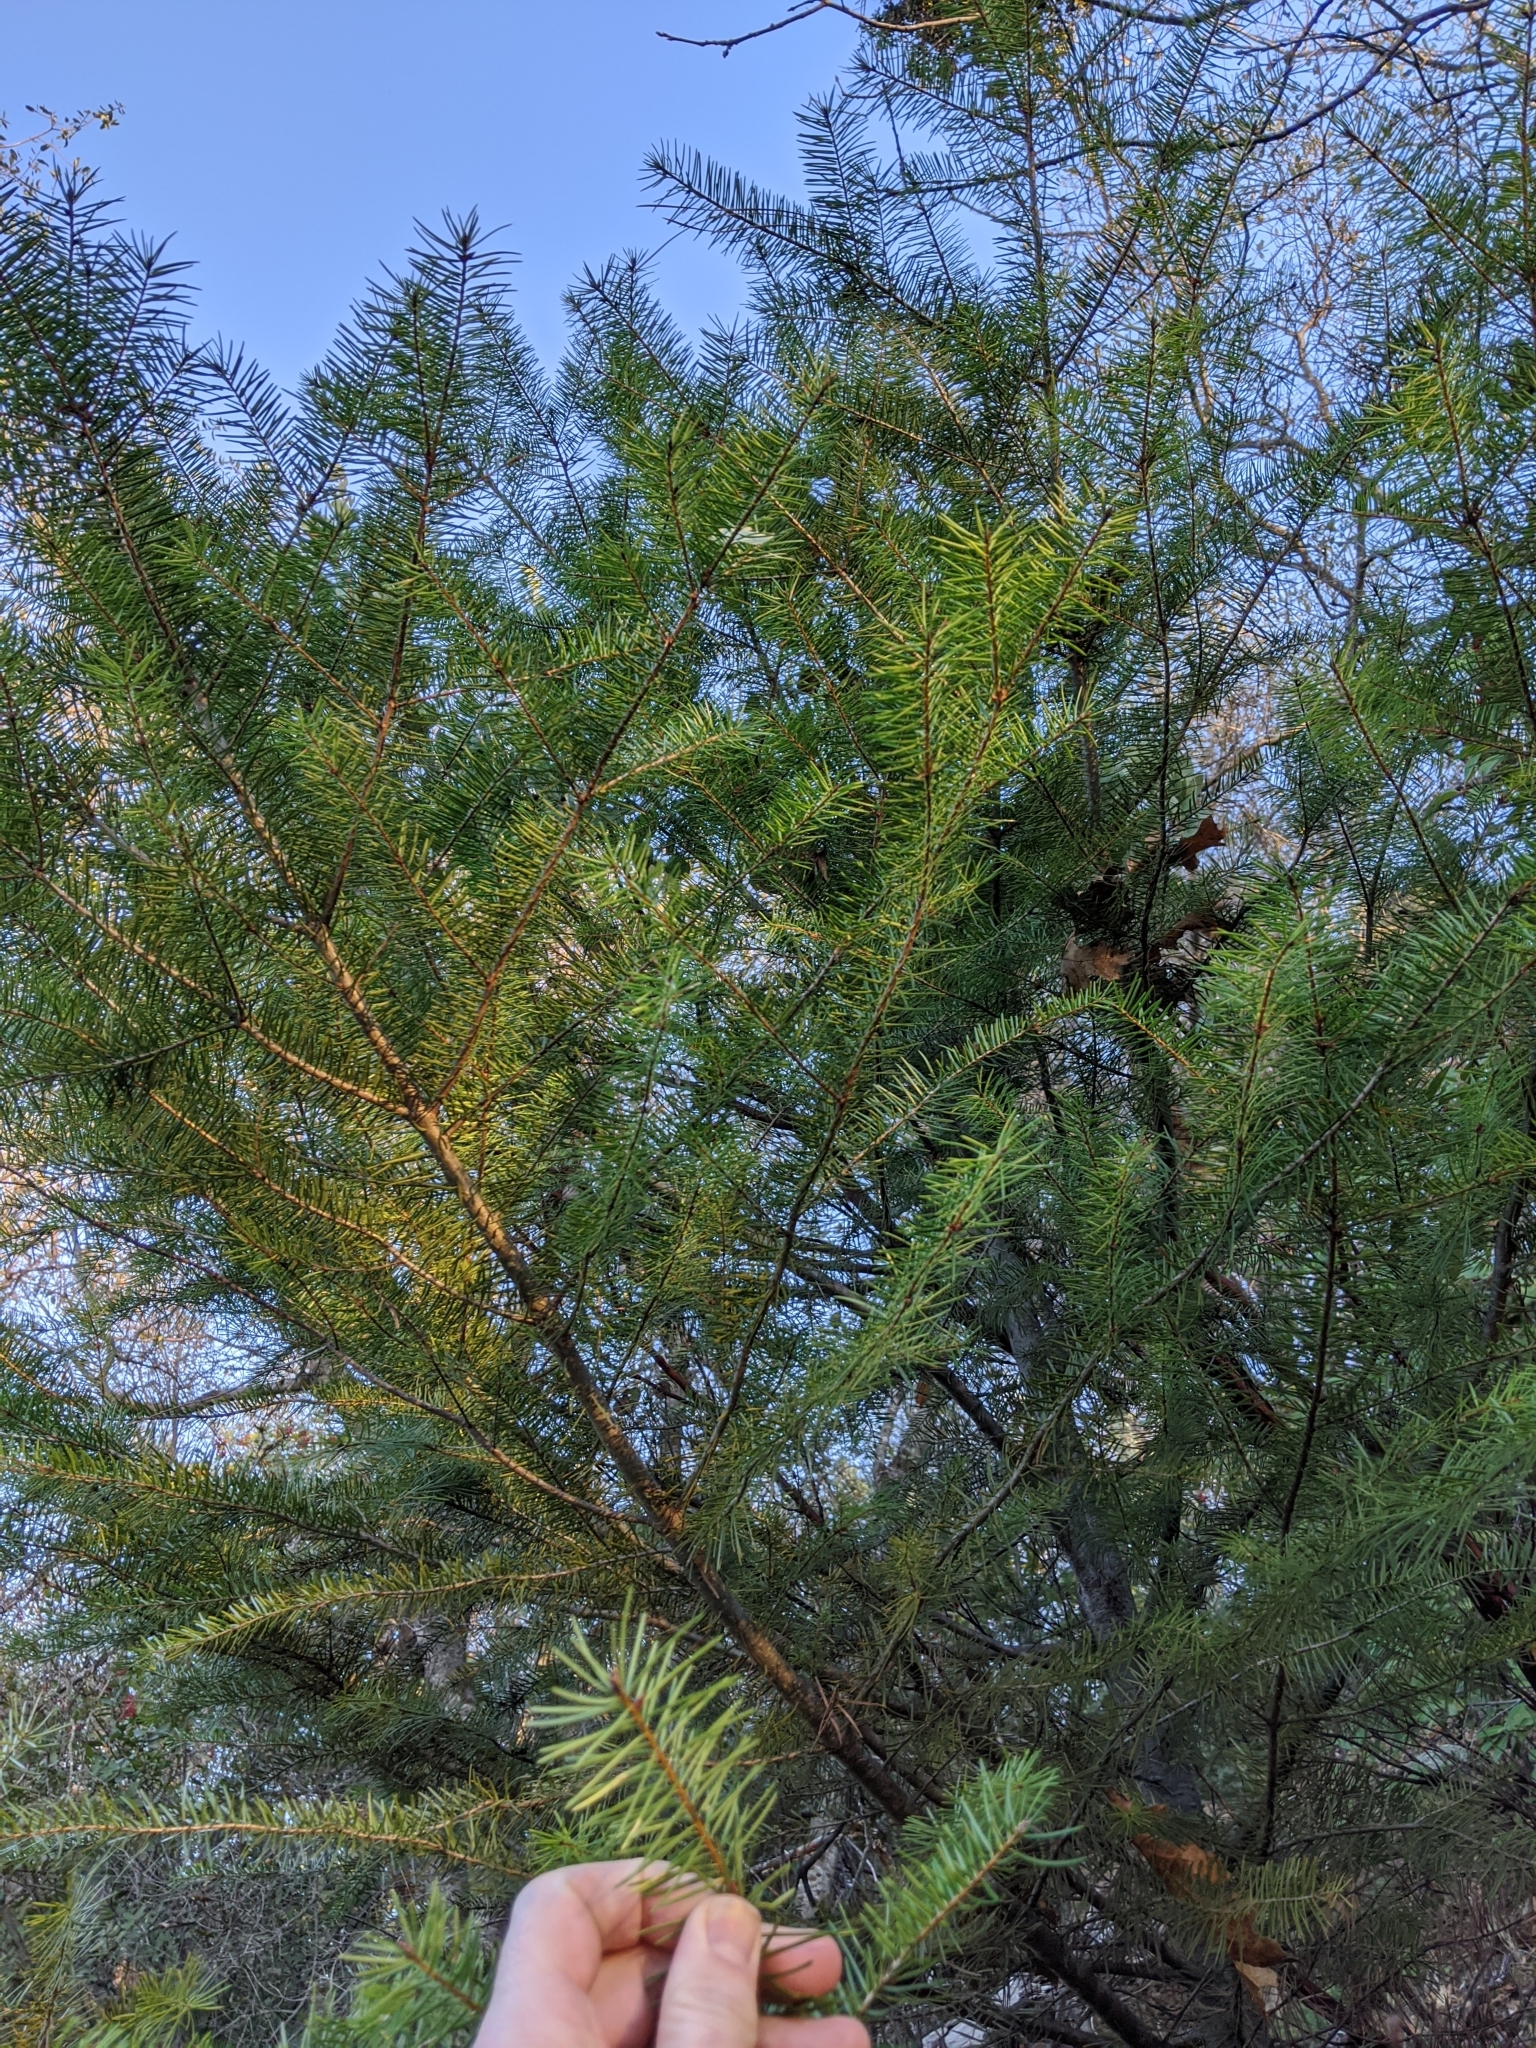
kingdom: Plantae
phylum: Tracheophyta
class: Pinopsida
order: Pinales
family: Pinaceae
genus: Pseudotsuga
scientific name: Pseudotsuga menziesii
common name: Douglas fir
